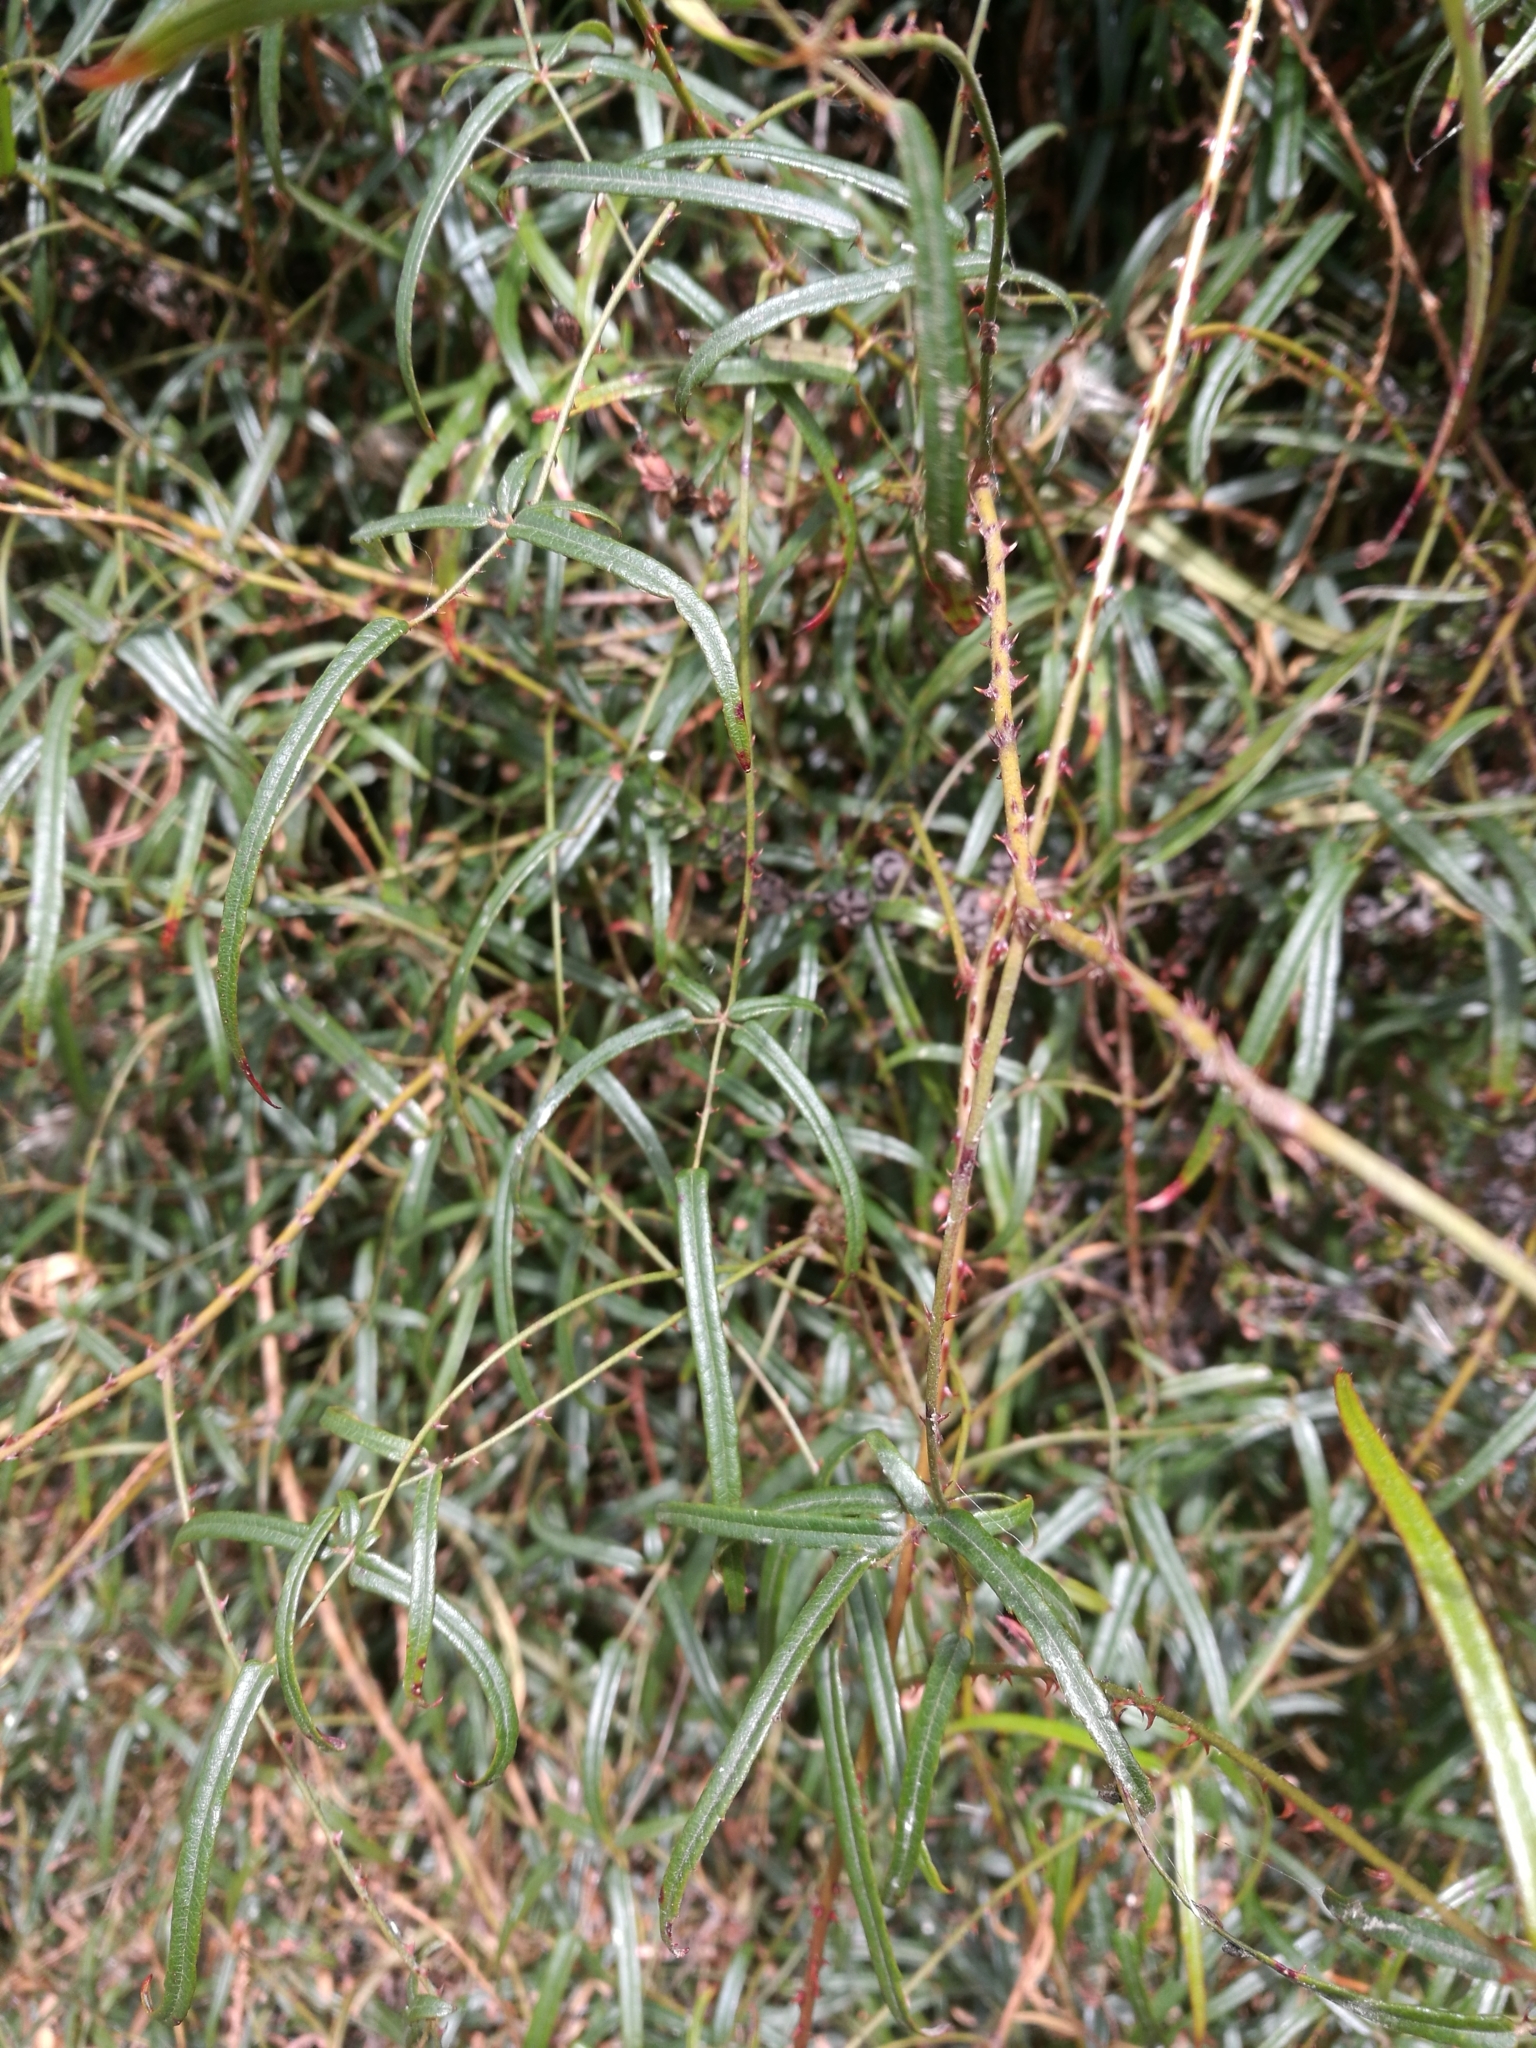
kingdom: Plantae
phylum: Tracheophyta
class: Magnoliopsida
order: Rosales
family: Rosaceae
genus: Rubus
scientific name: Rubus schmidelioides
